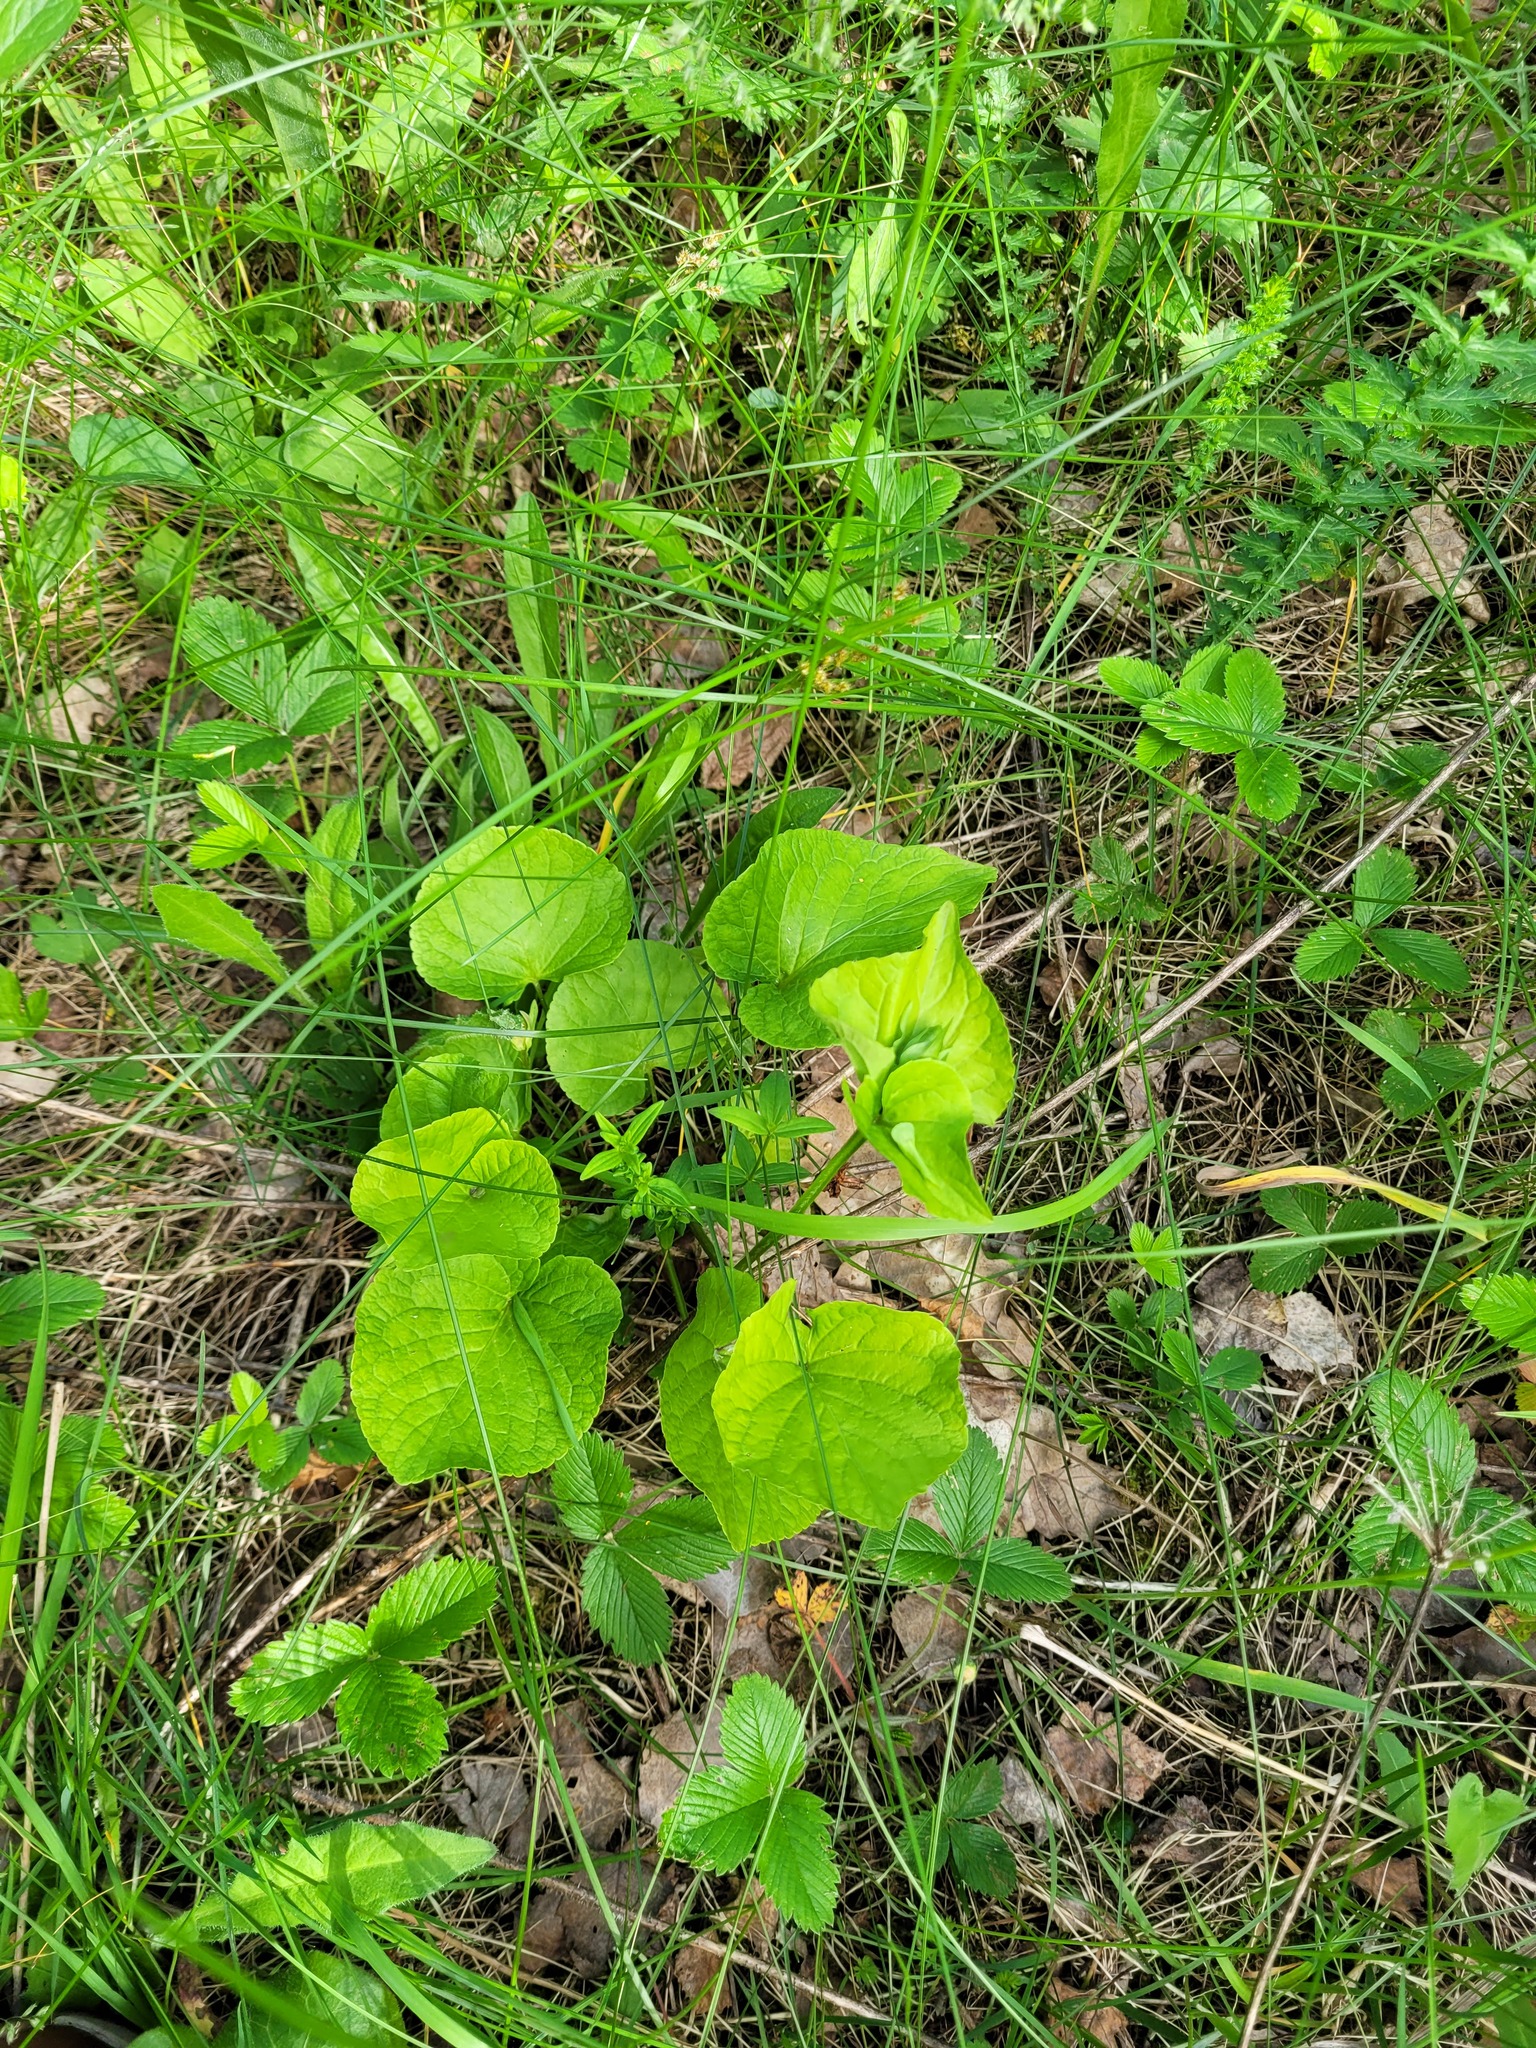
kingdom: Plantae
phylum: Tracheophyta
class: Magnoliopsida
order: Malpighiales
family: Violaceae
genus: Viola
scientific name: Viola mirabilis
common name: Wonder violet
